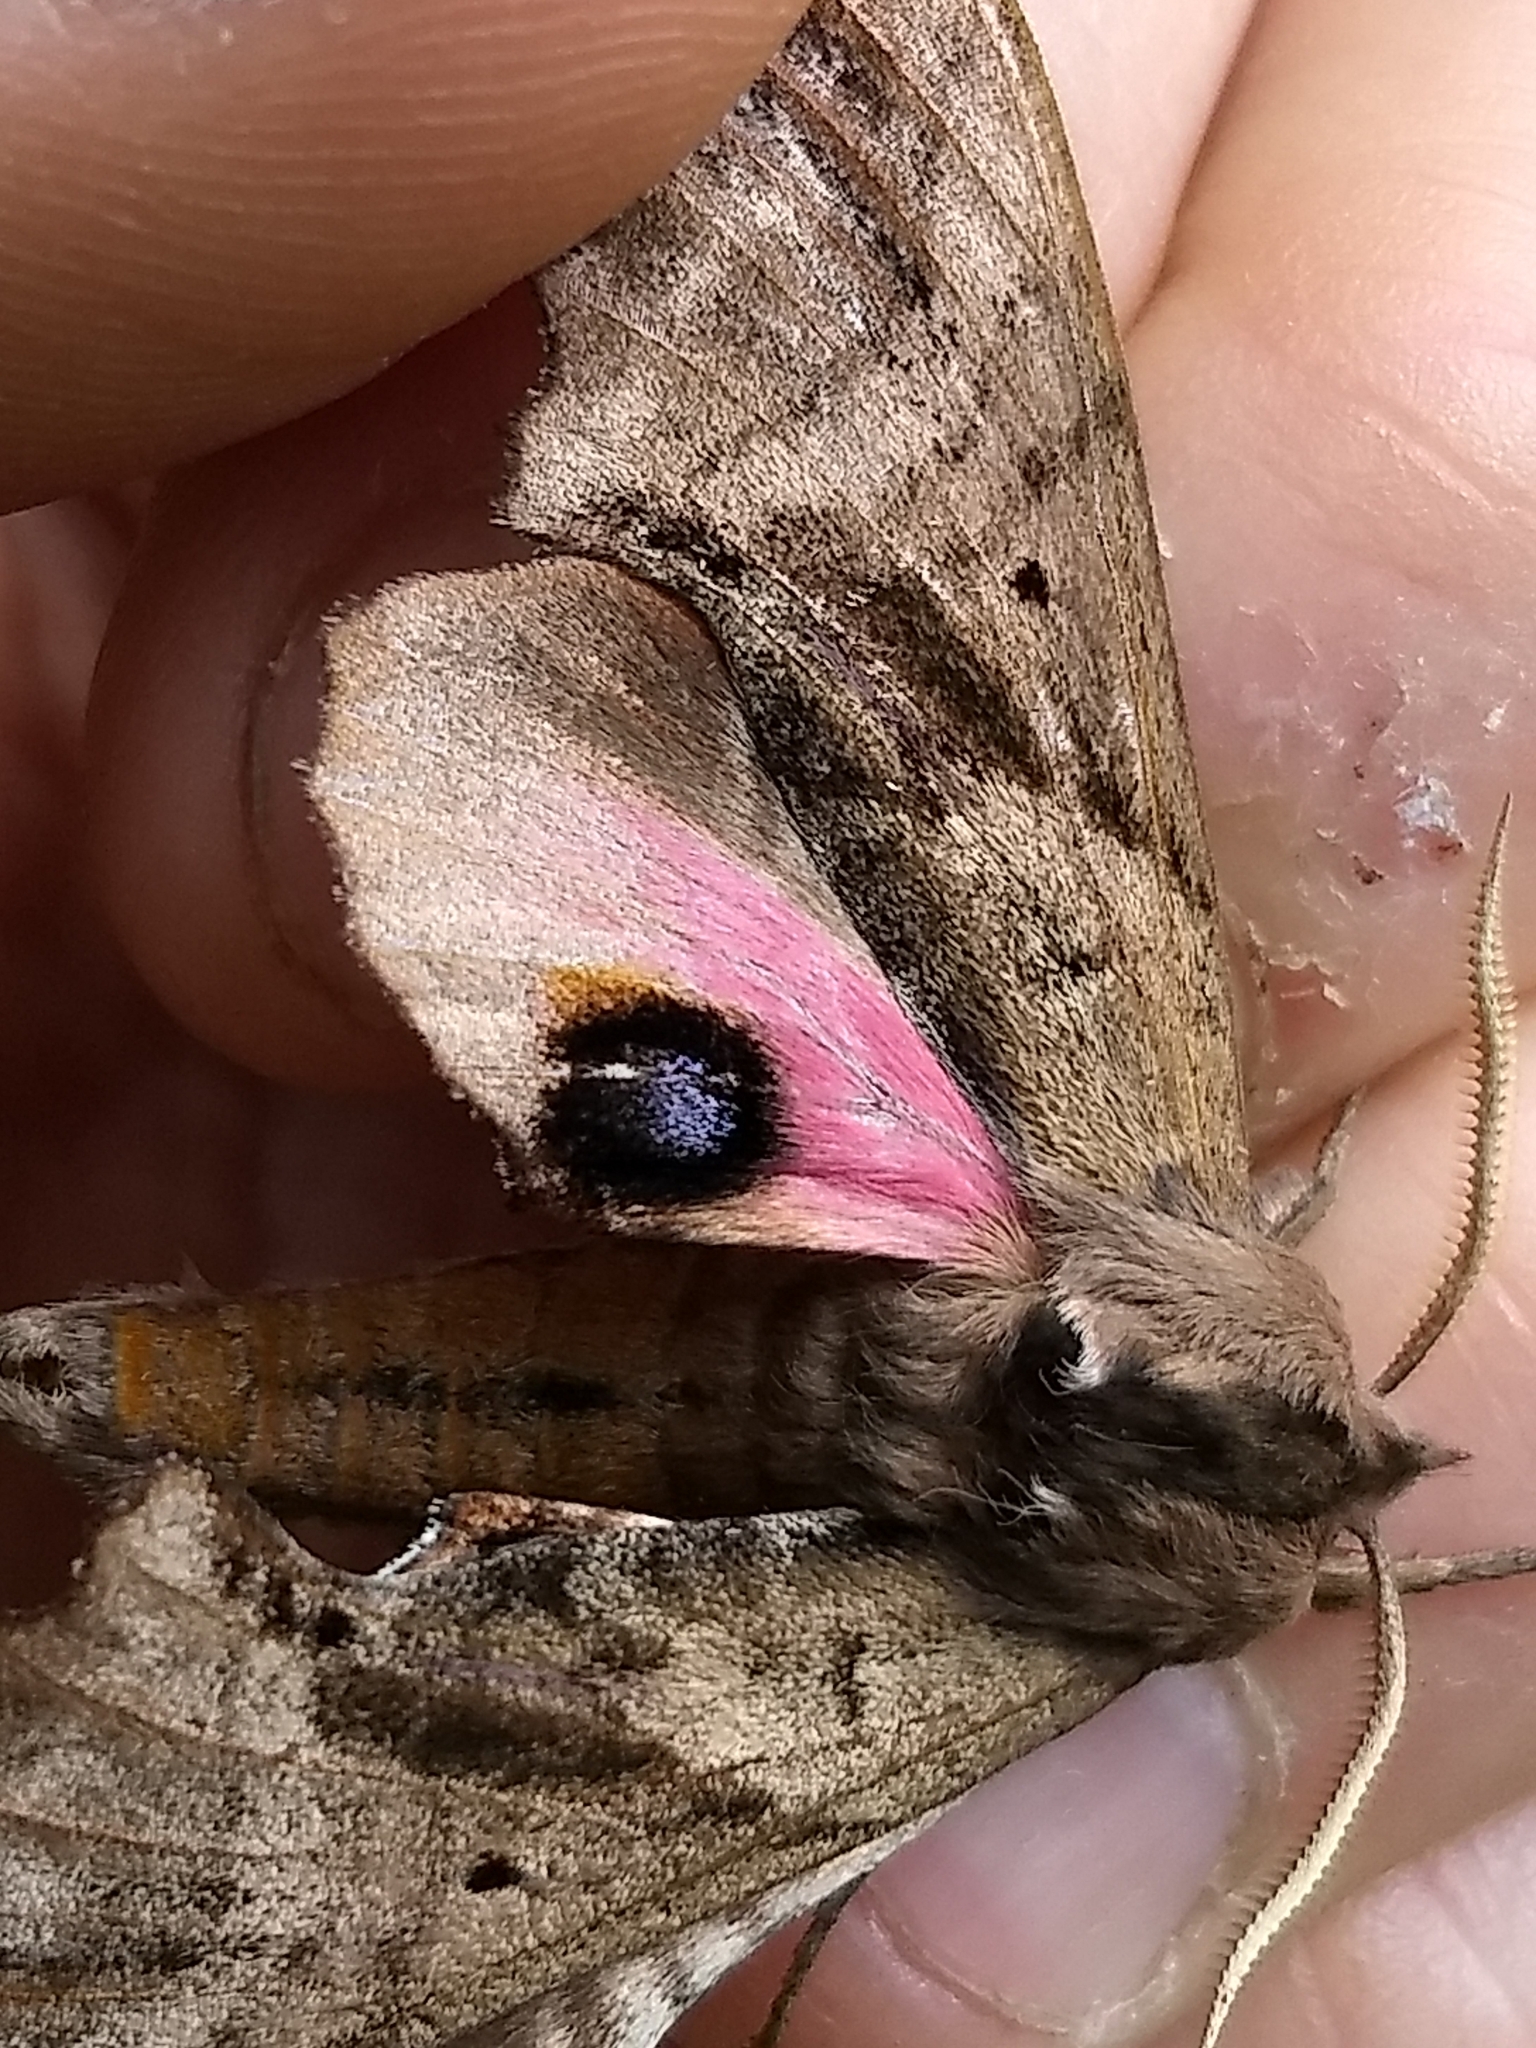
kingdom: Animalia
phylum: Arthropoda
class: Insecta
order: Lepidoptera
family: Sphingidae
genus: Paonias
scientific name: Paonias excaecata
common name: Blind-eyed sphinx
